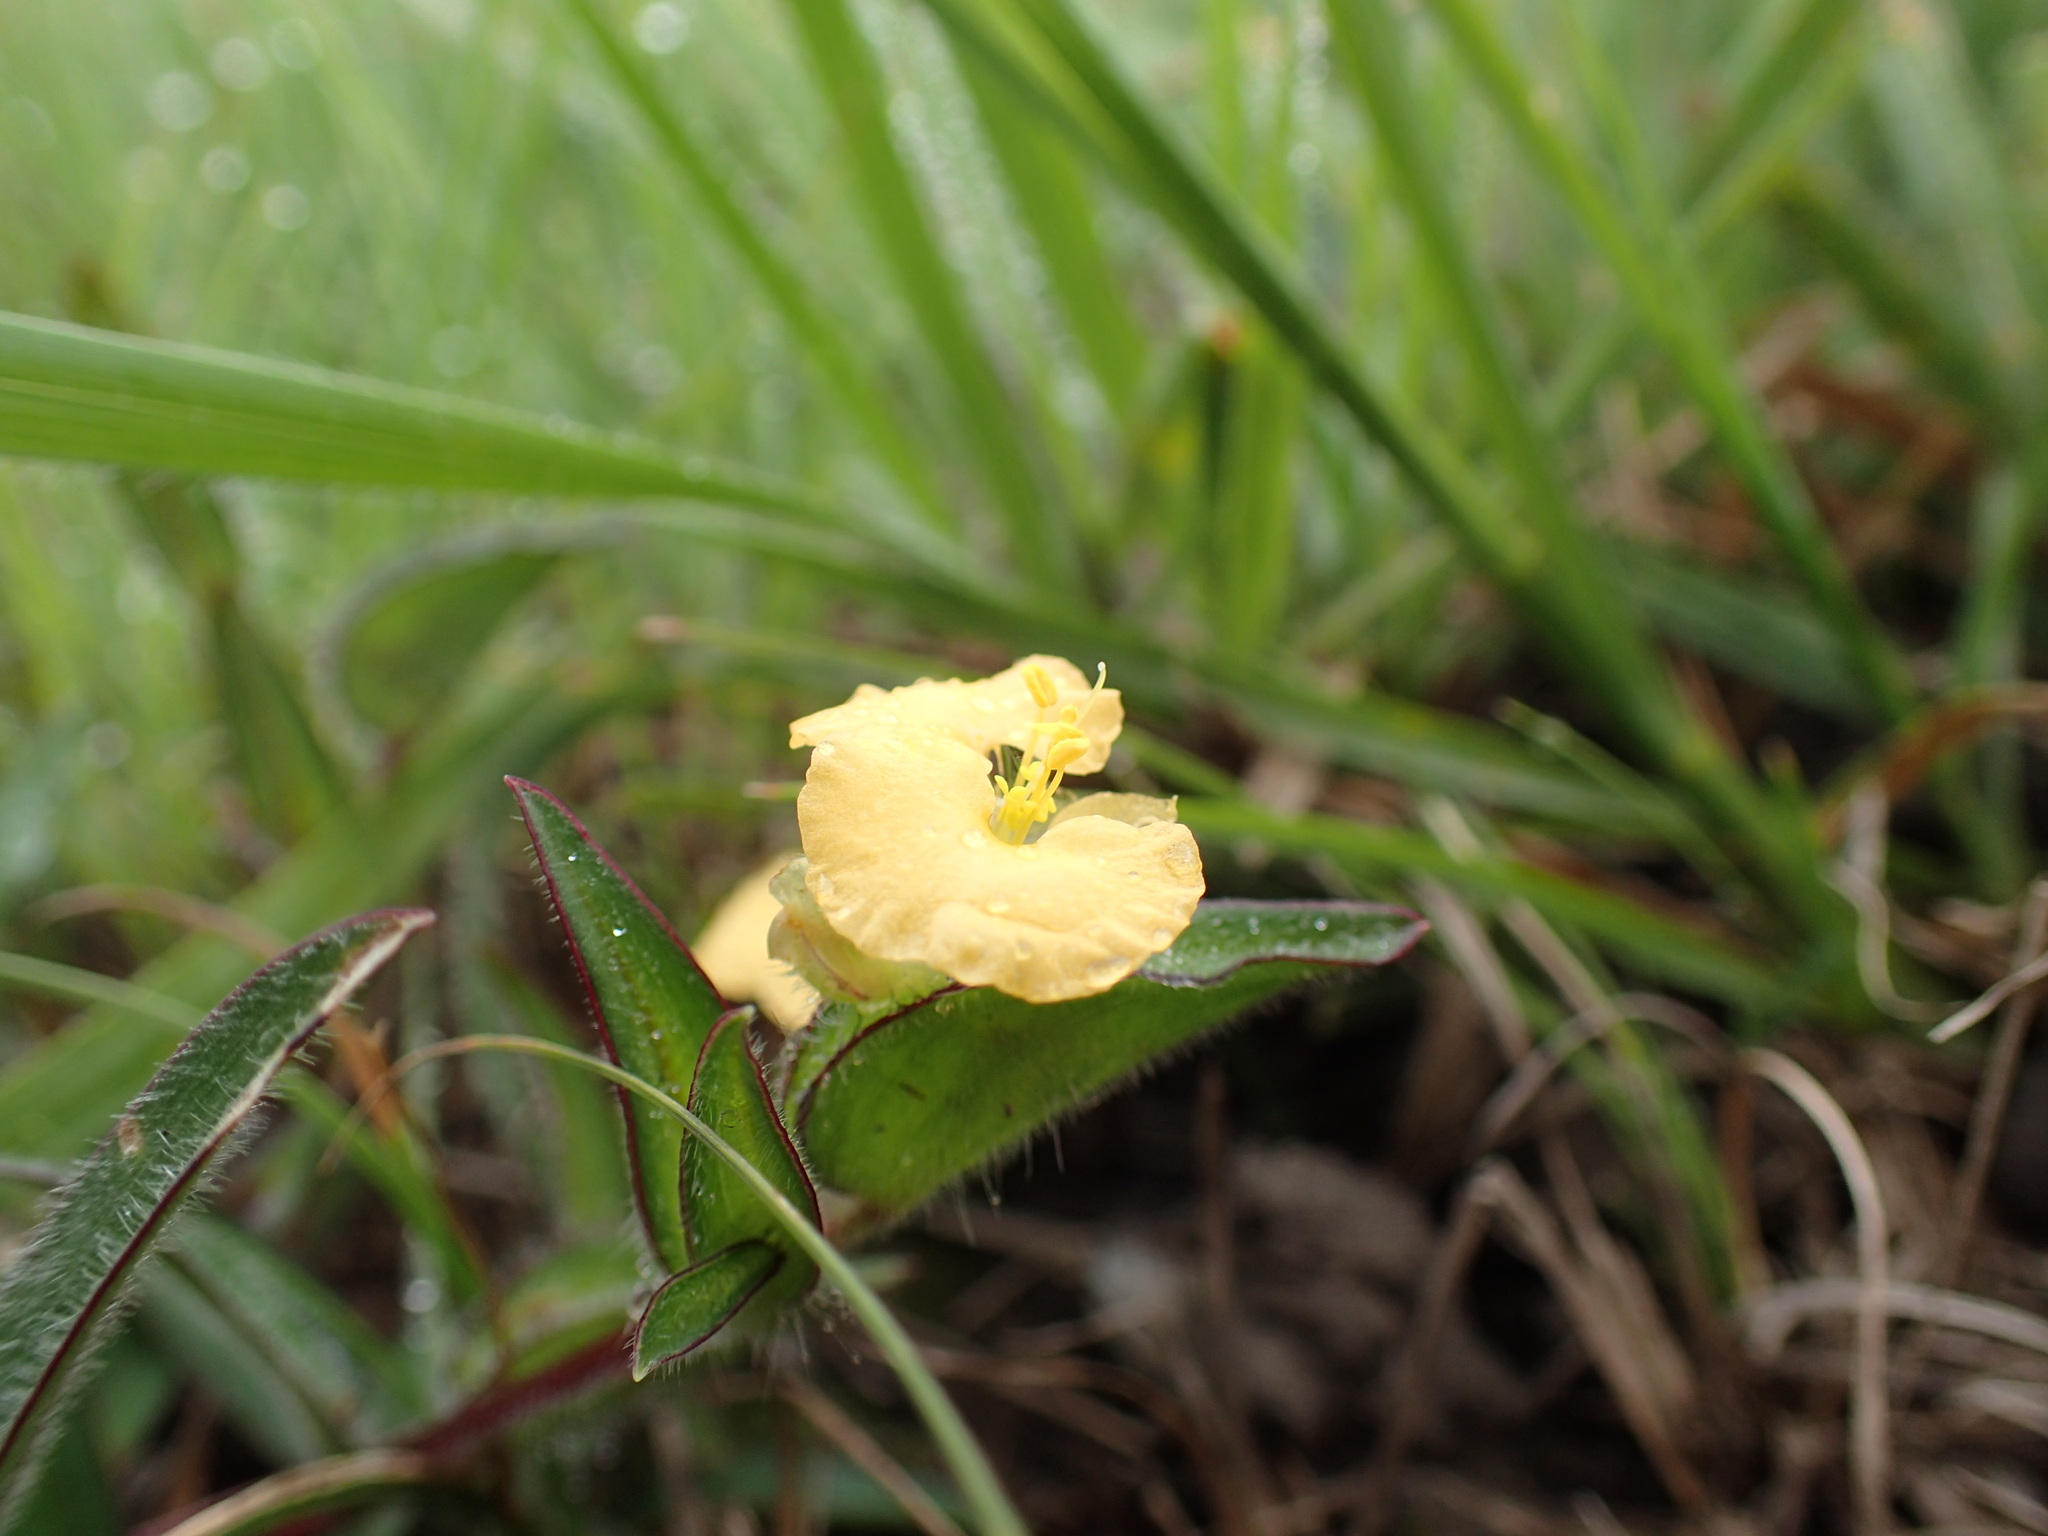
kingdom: Plantae
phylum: Tracheophyta
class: Liliopsida
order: Commelinales
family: Commelinaceae
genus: Commelina
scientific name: Commelina africana
